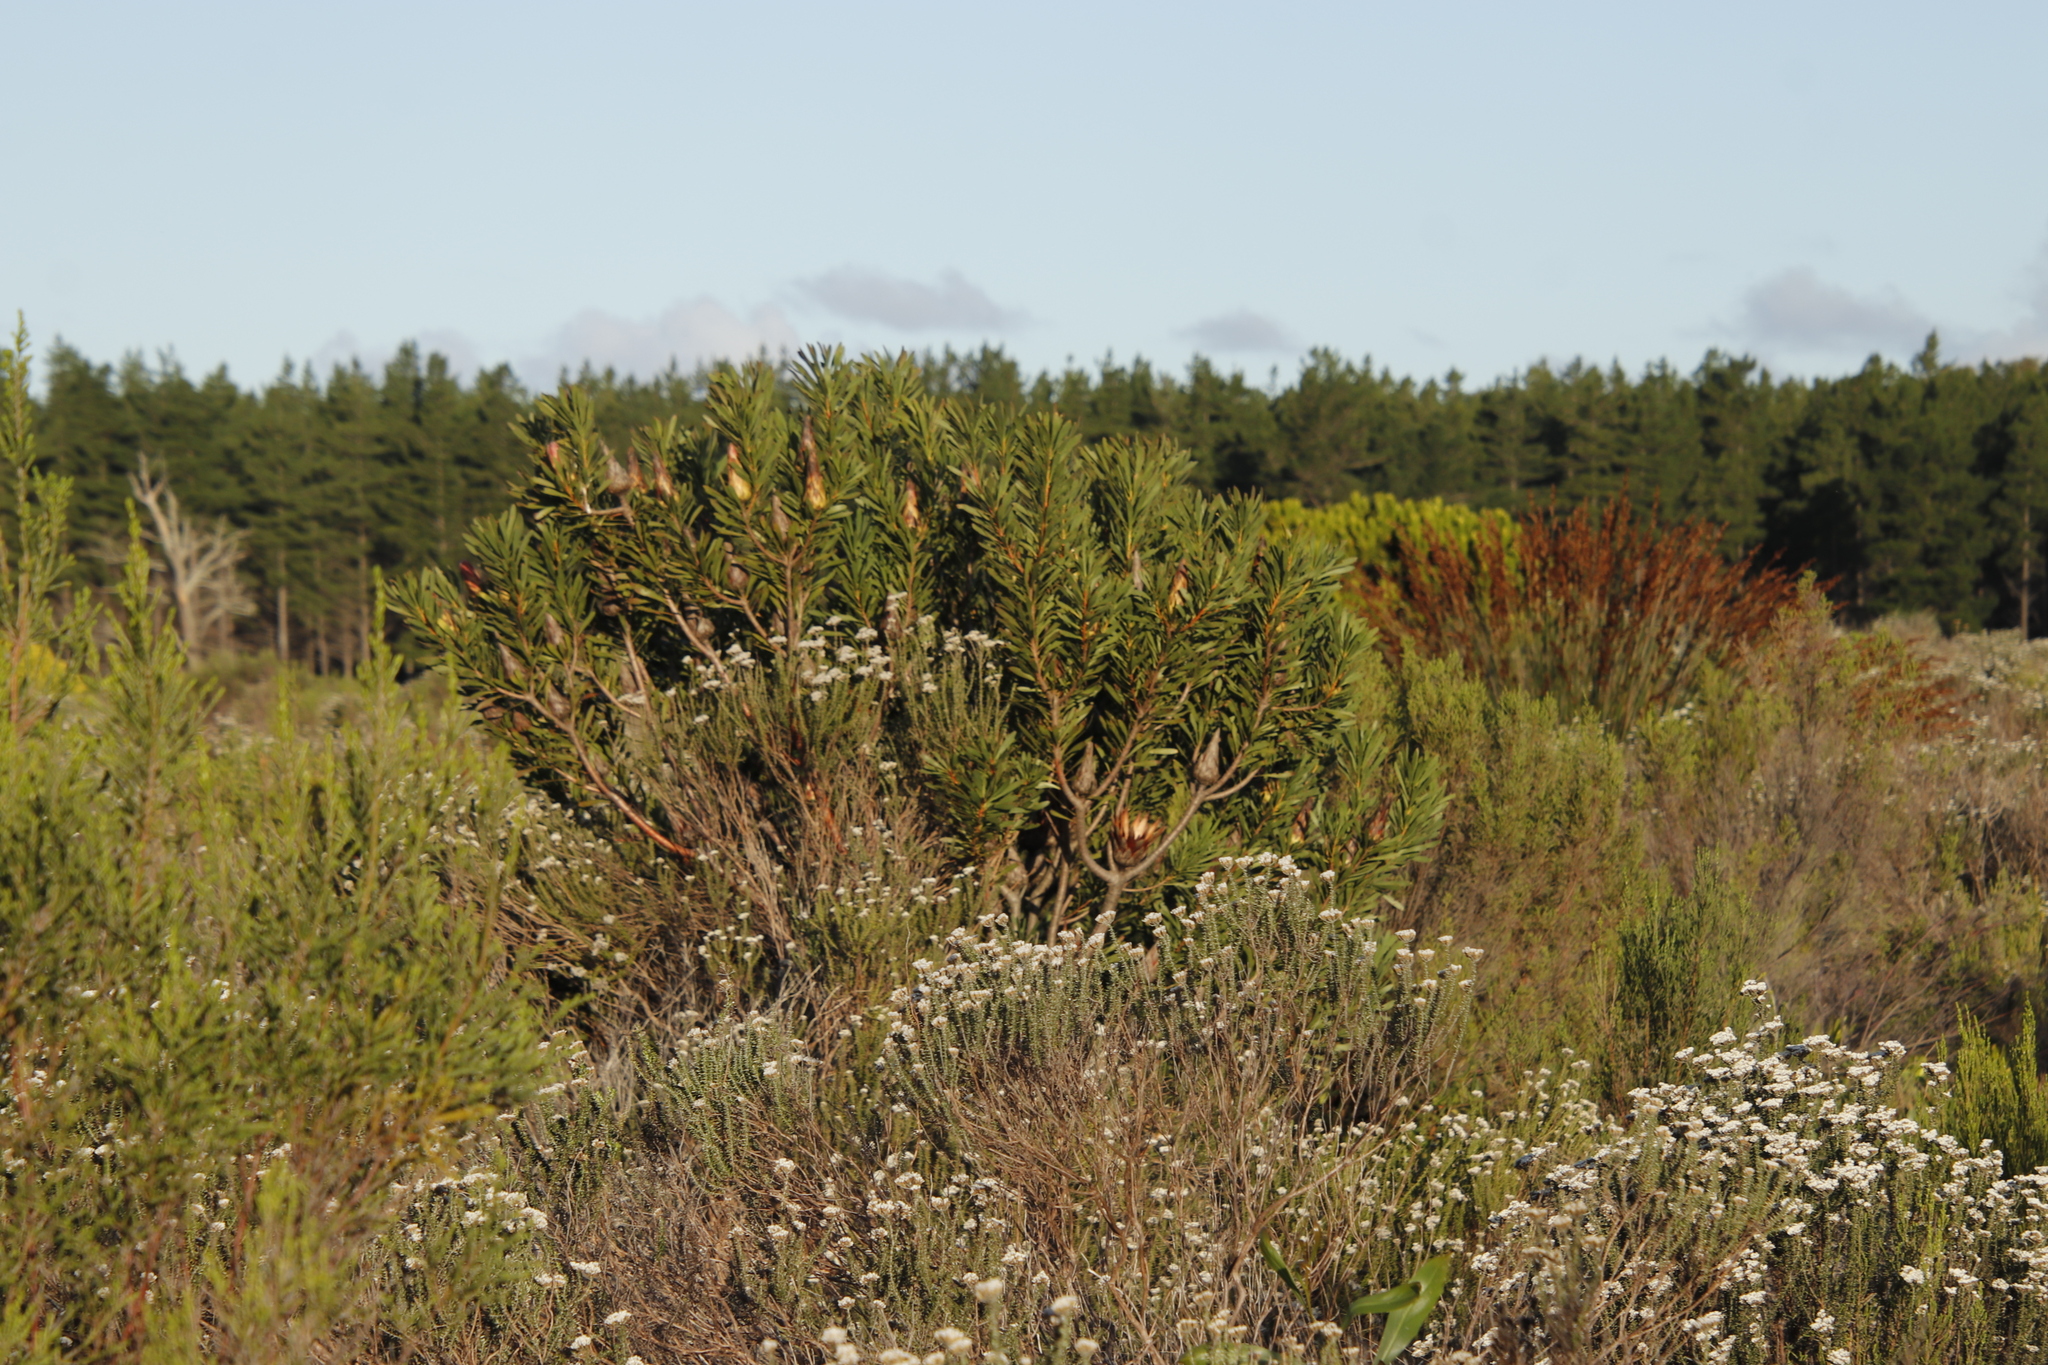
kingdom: Plantae
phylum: Tracheophyta
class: Magnoliopsida
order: Proteales
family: Proteaceae
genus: Protea
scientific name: Protea repens
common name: Sugarbush
